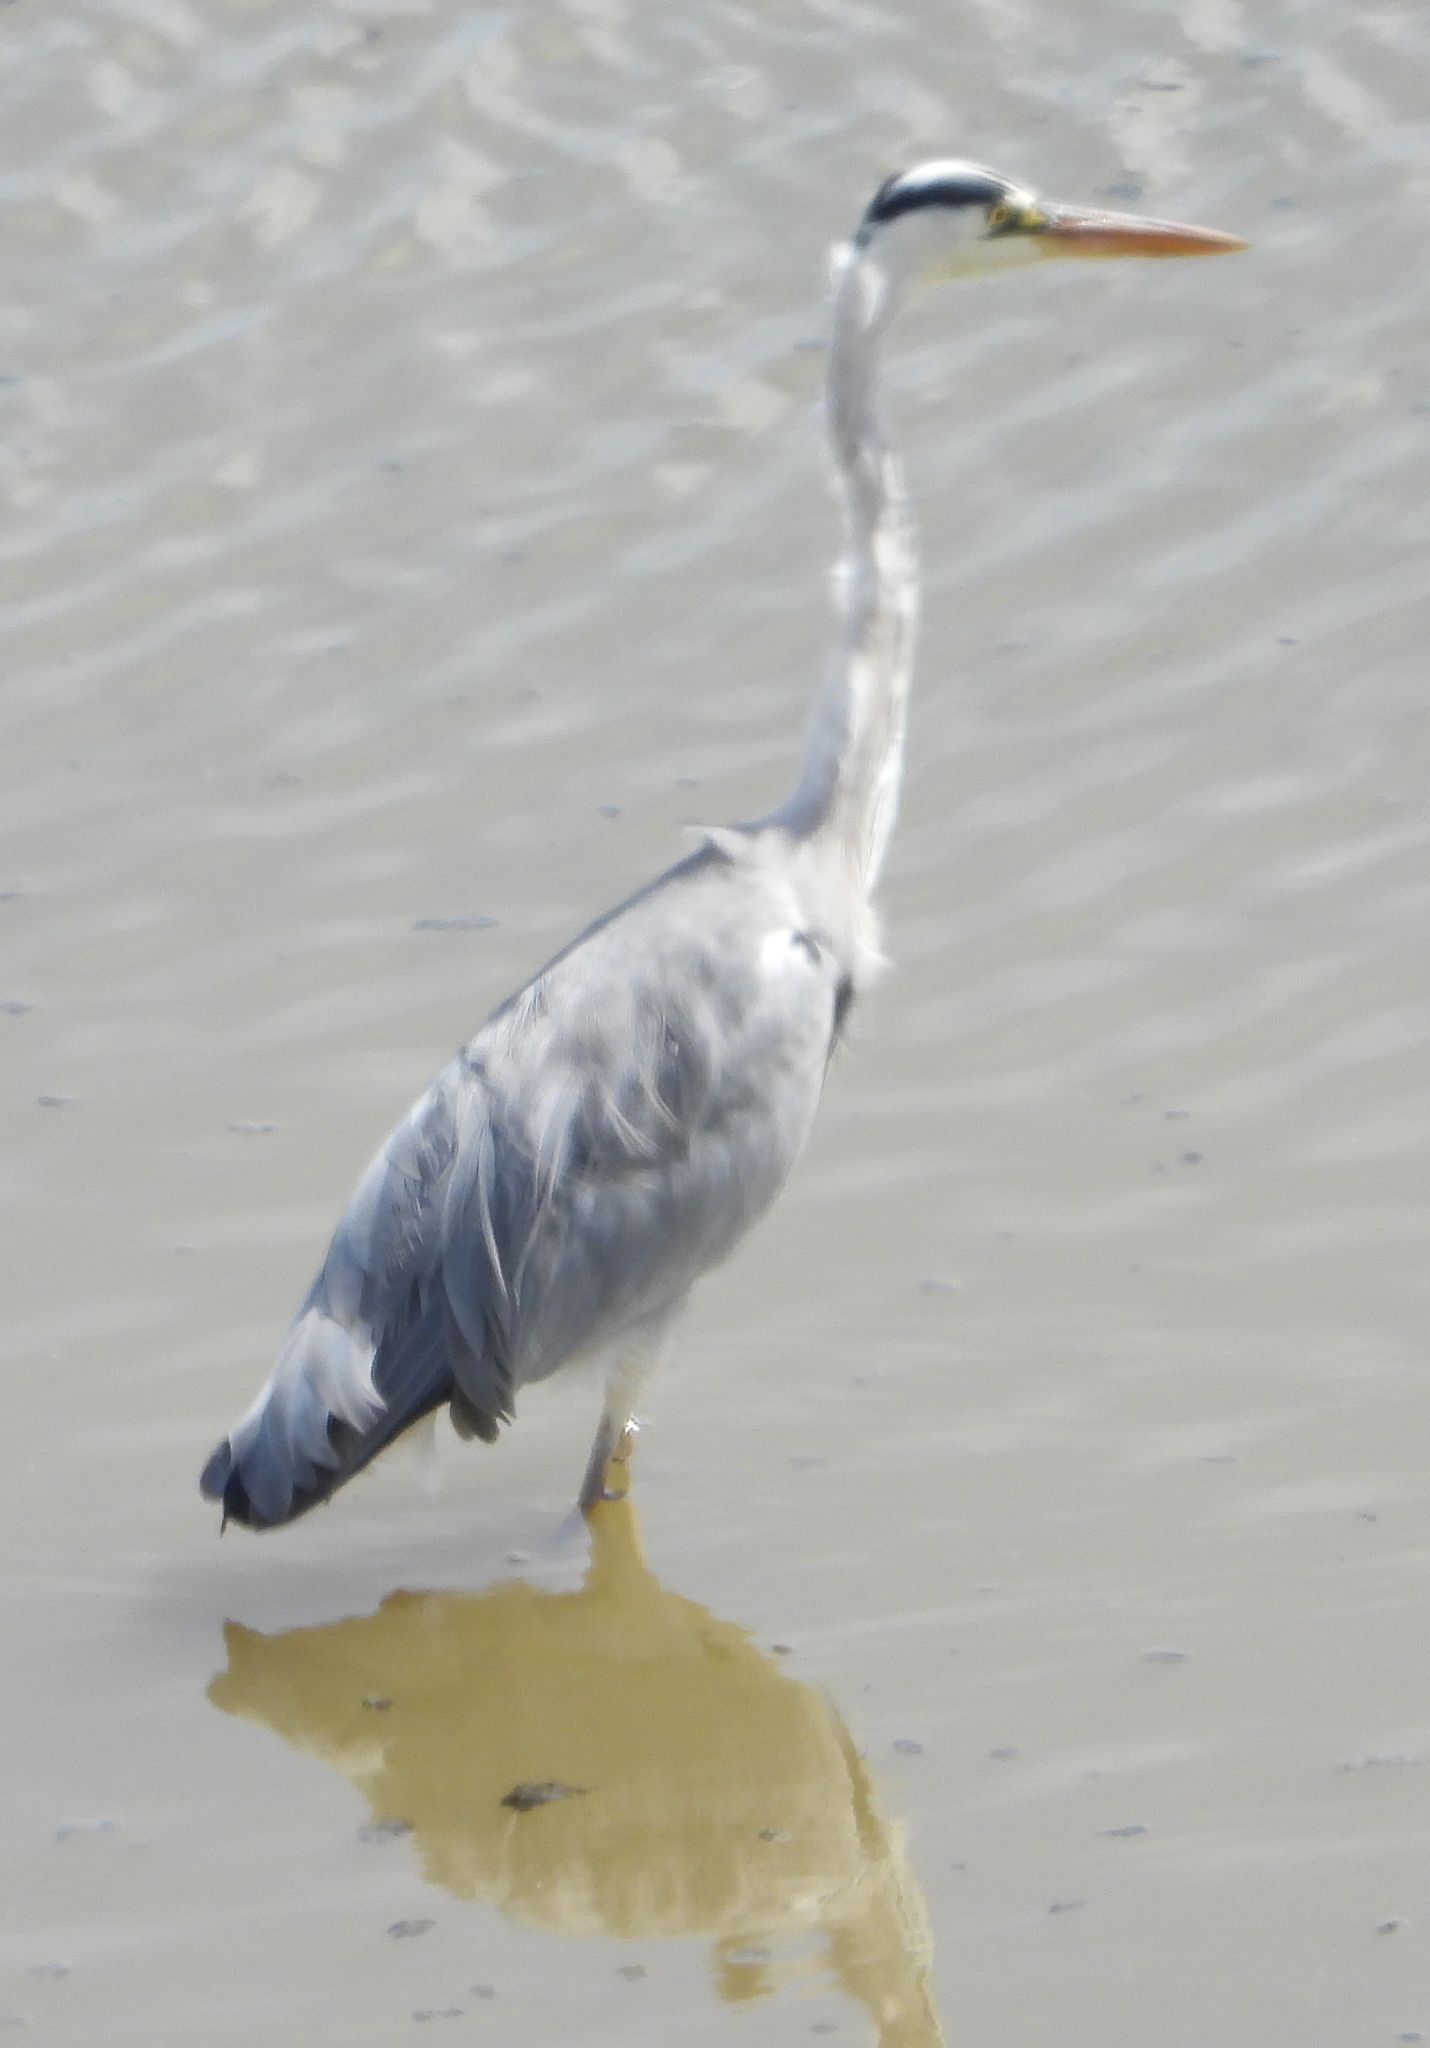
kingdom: Animalia
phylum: Chordata
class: Aves
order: Pelecaniformes
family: Ardeidae
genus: Ardea
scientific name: Ardea cinerea
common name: Grey heron
